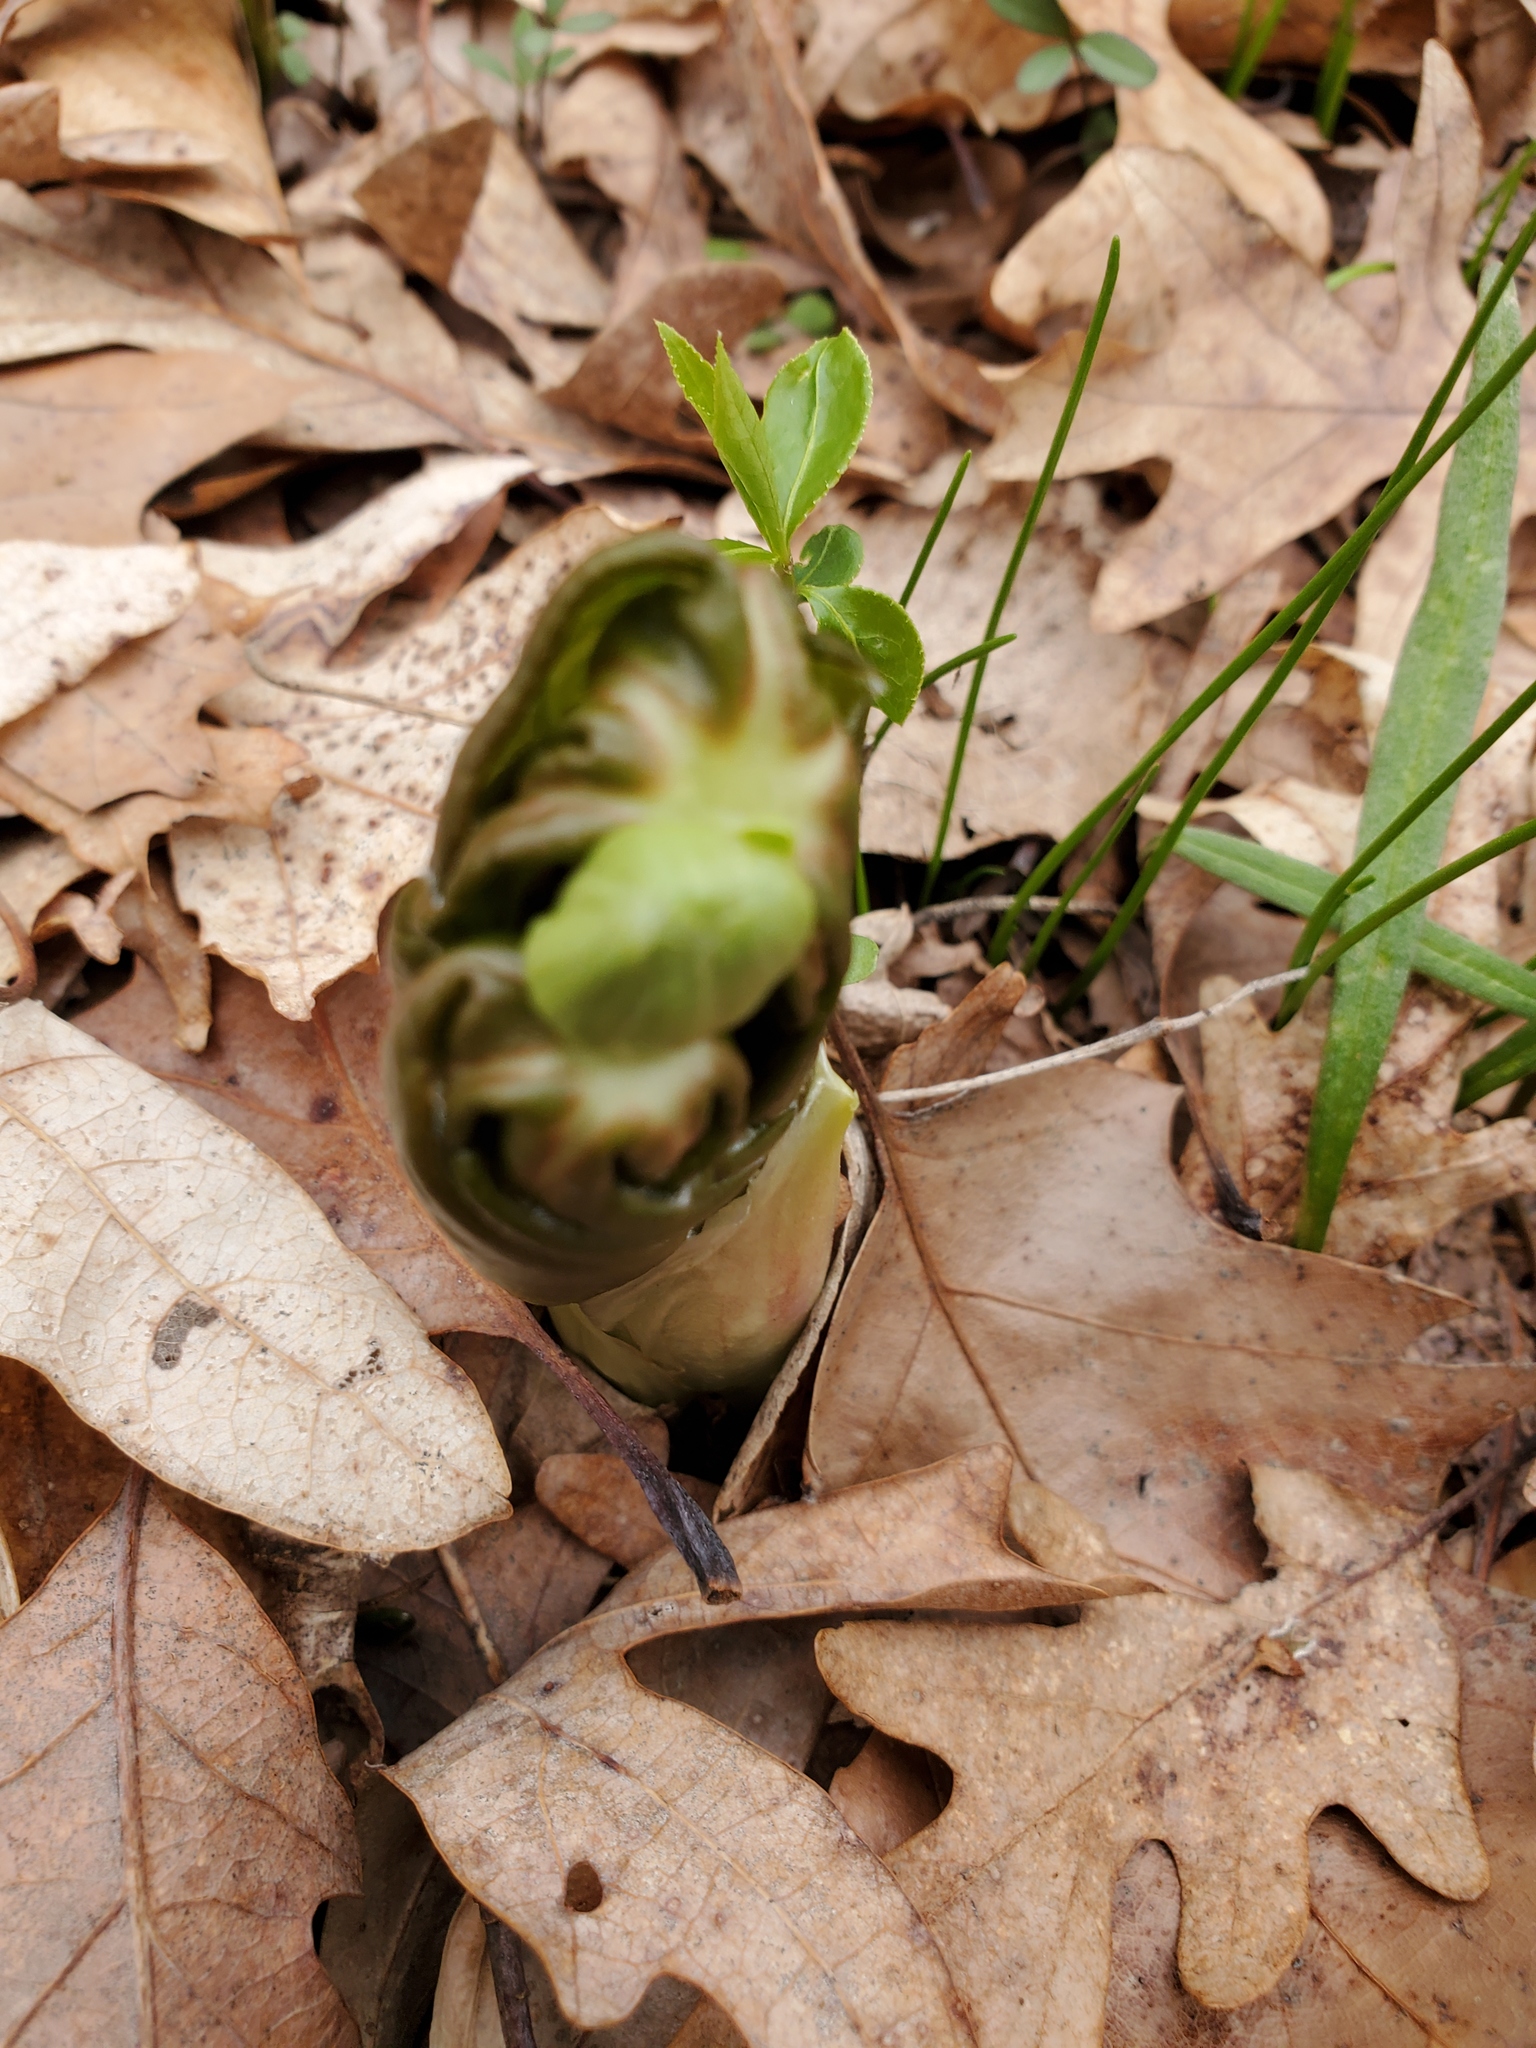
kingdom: Plantae
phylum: Tracheophyta
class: Magnoliopsida
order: Ranunculales
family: Berberidaceae
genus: Podophyllum
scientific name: Podophyllum peltatum
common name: Wild mandrake
